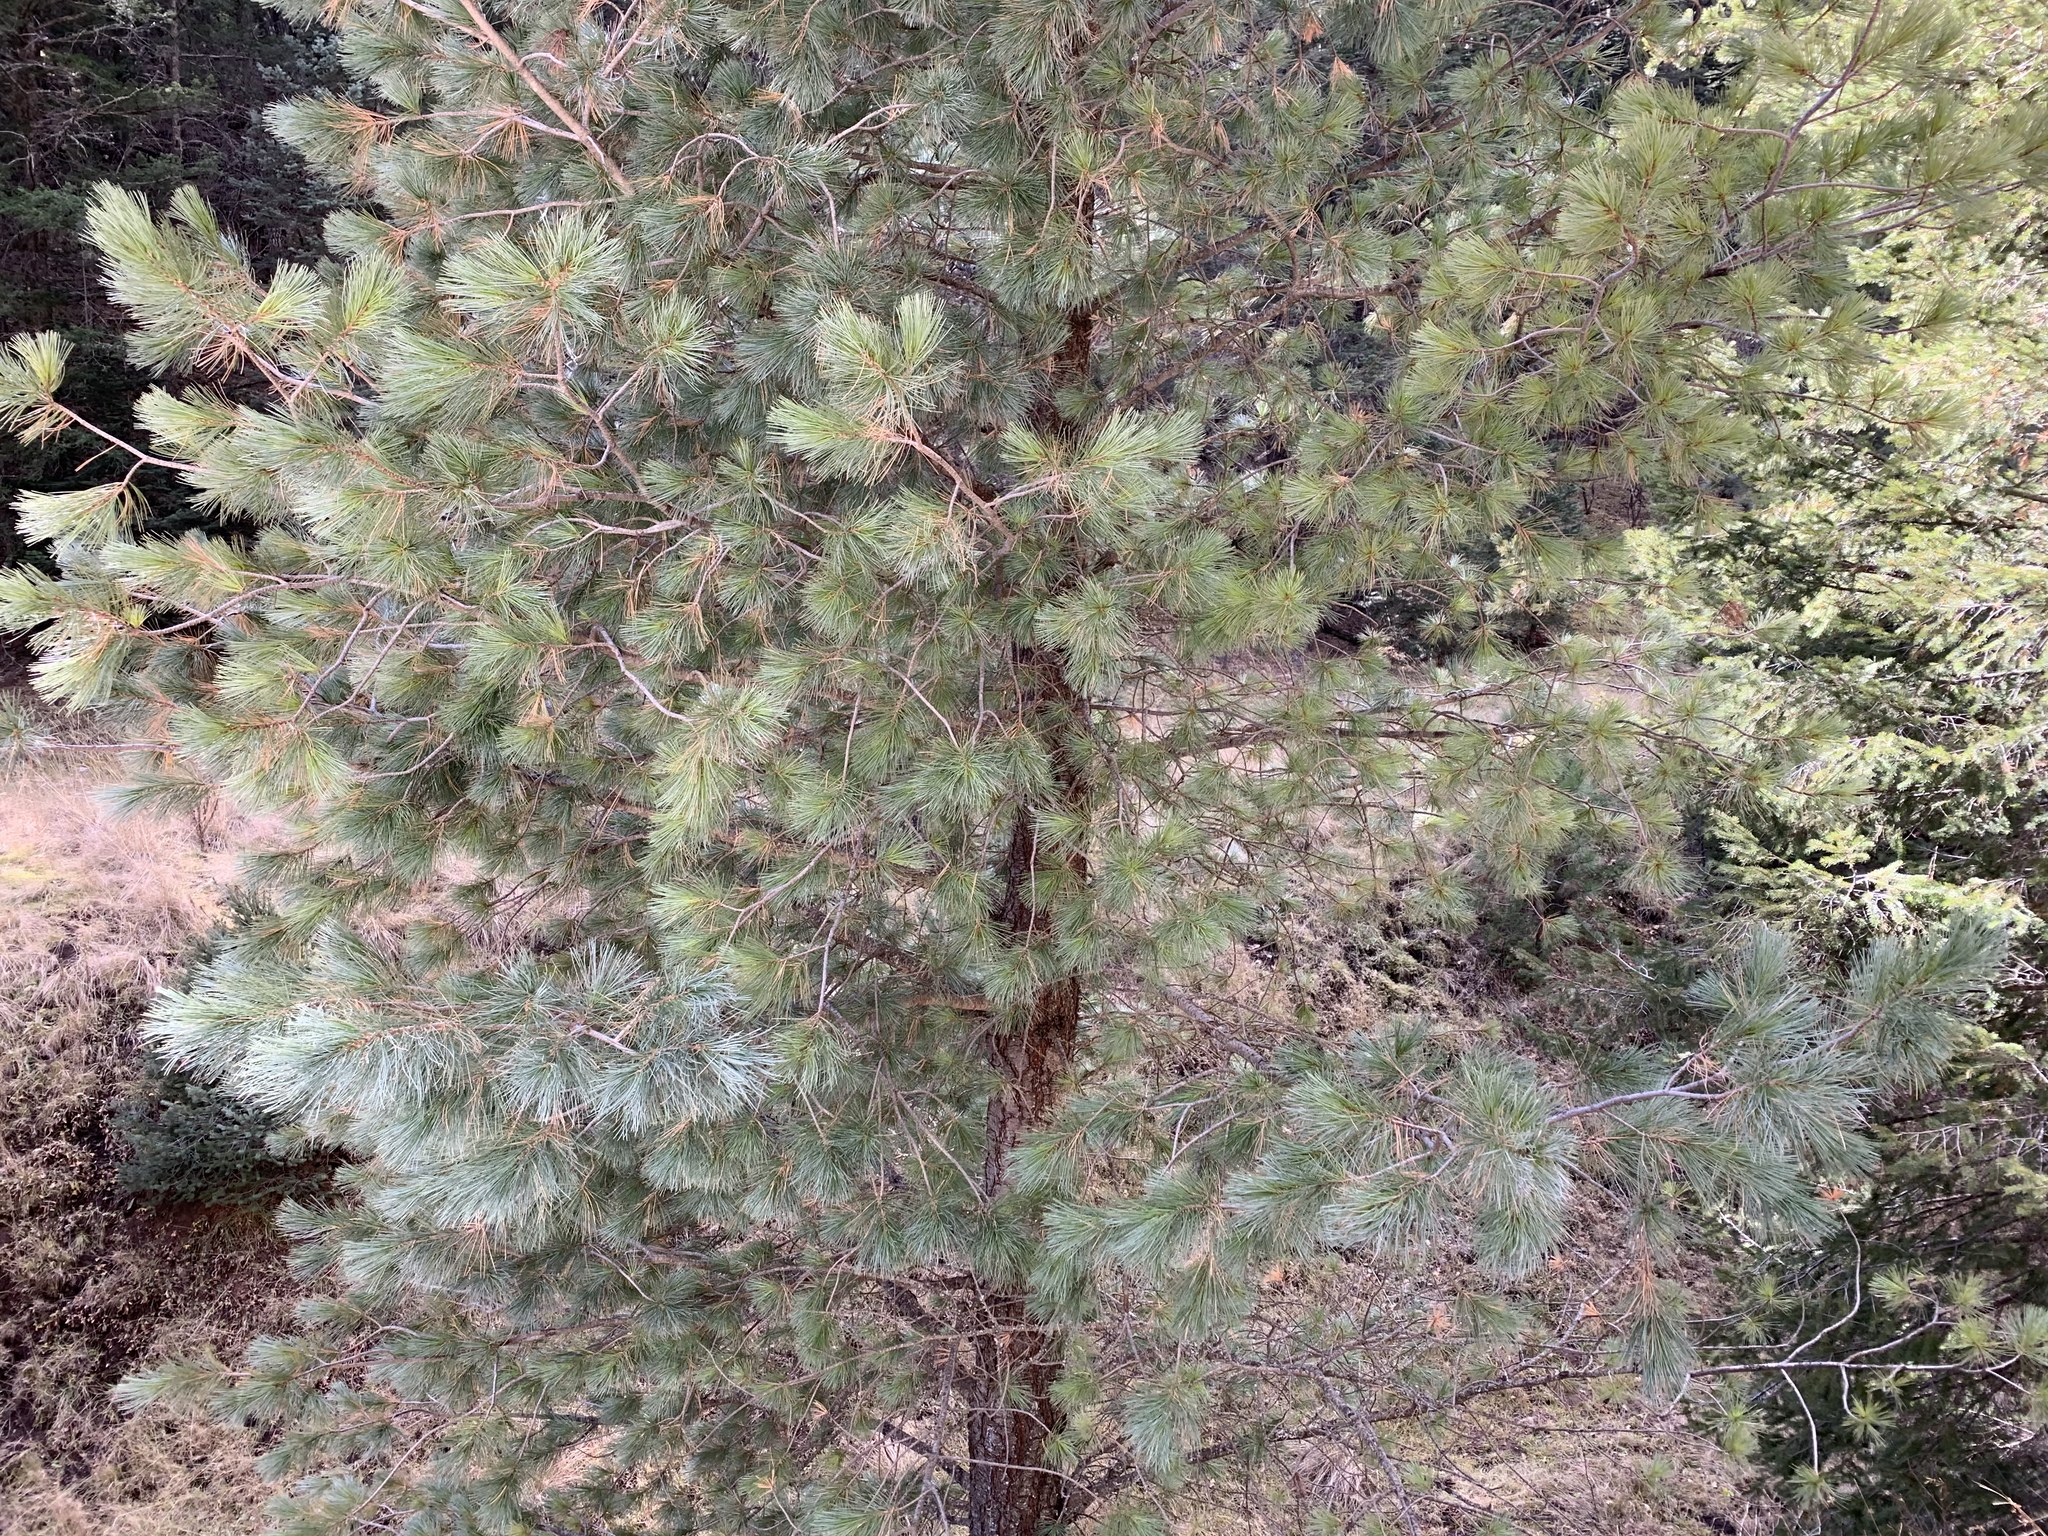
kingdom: Plantae
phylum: Tracheophyta
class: Pinopsida
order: Pinales
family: Pinaceae
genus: Pinus
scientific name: Pinus strobiformis
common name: Southwestern white pine
